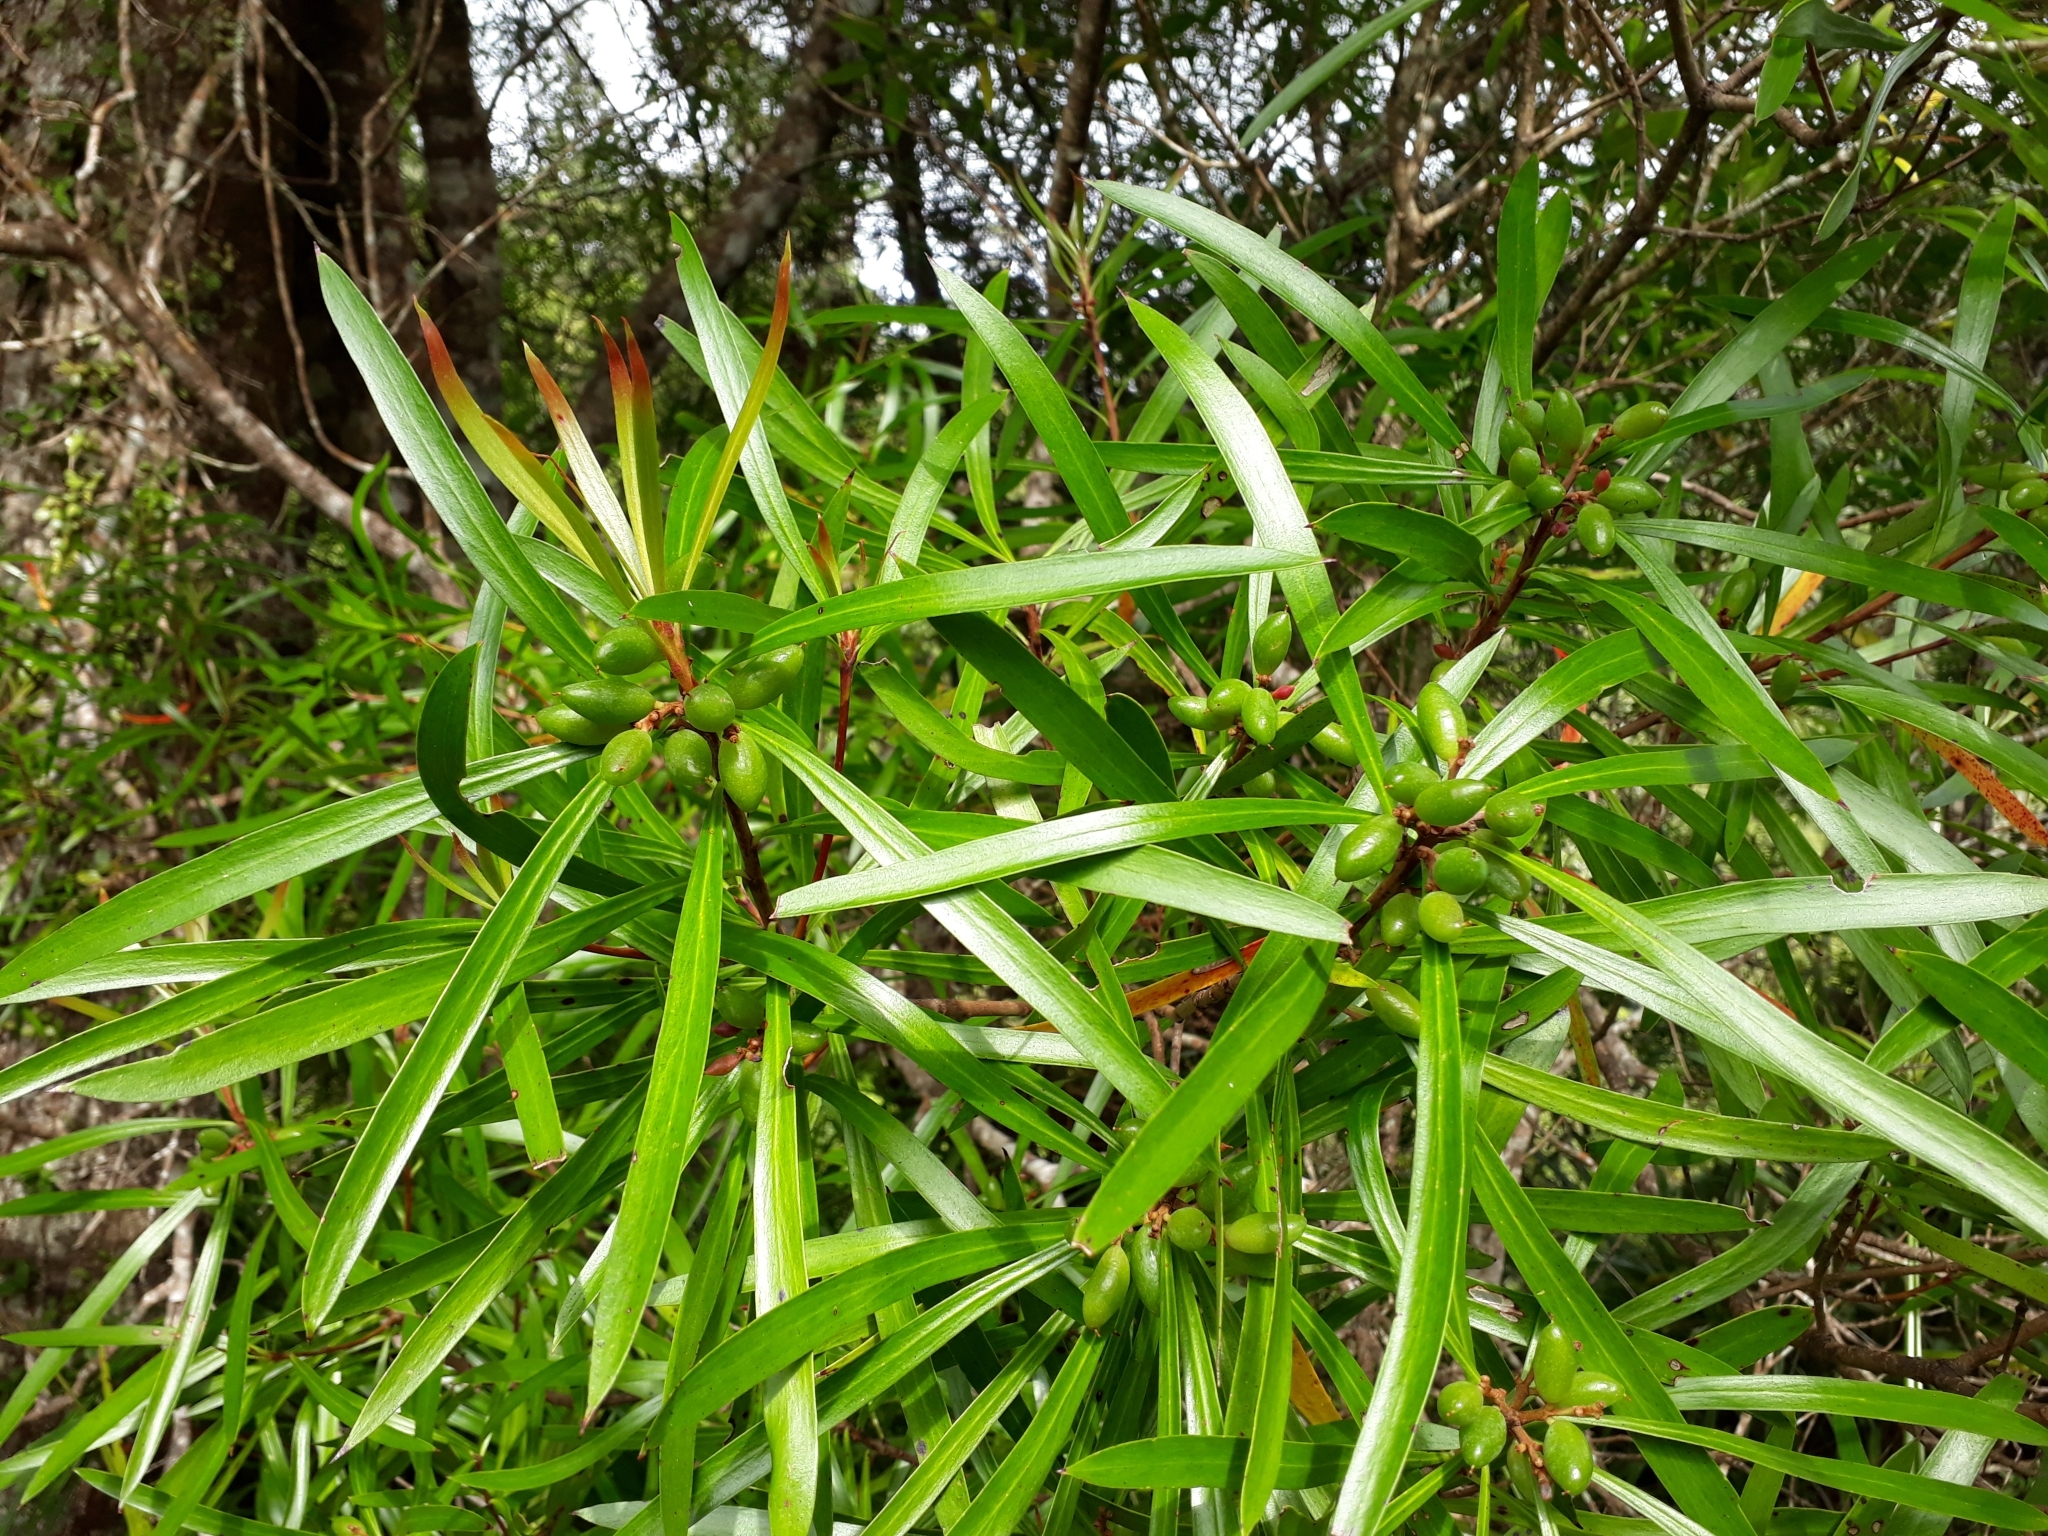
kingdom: Plantae
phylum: Tracheophyta
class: Magnoliopsida
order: Proteales
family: Proteaceae
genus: Toronia
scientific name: Toronia toru
